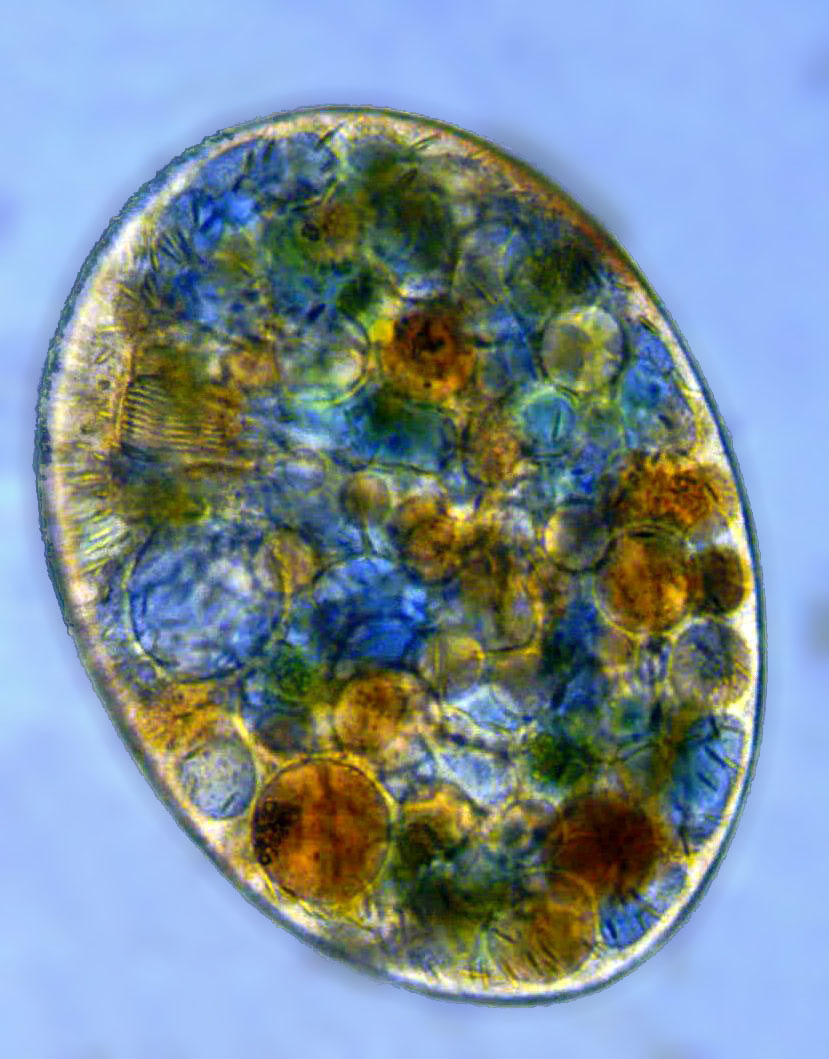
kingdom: Chromista
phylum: Ciliophora
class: Nassophorea
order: Nassulida
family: Nassulidae
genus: Nassula
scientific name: Nassula ornata
